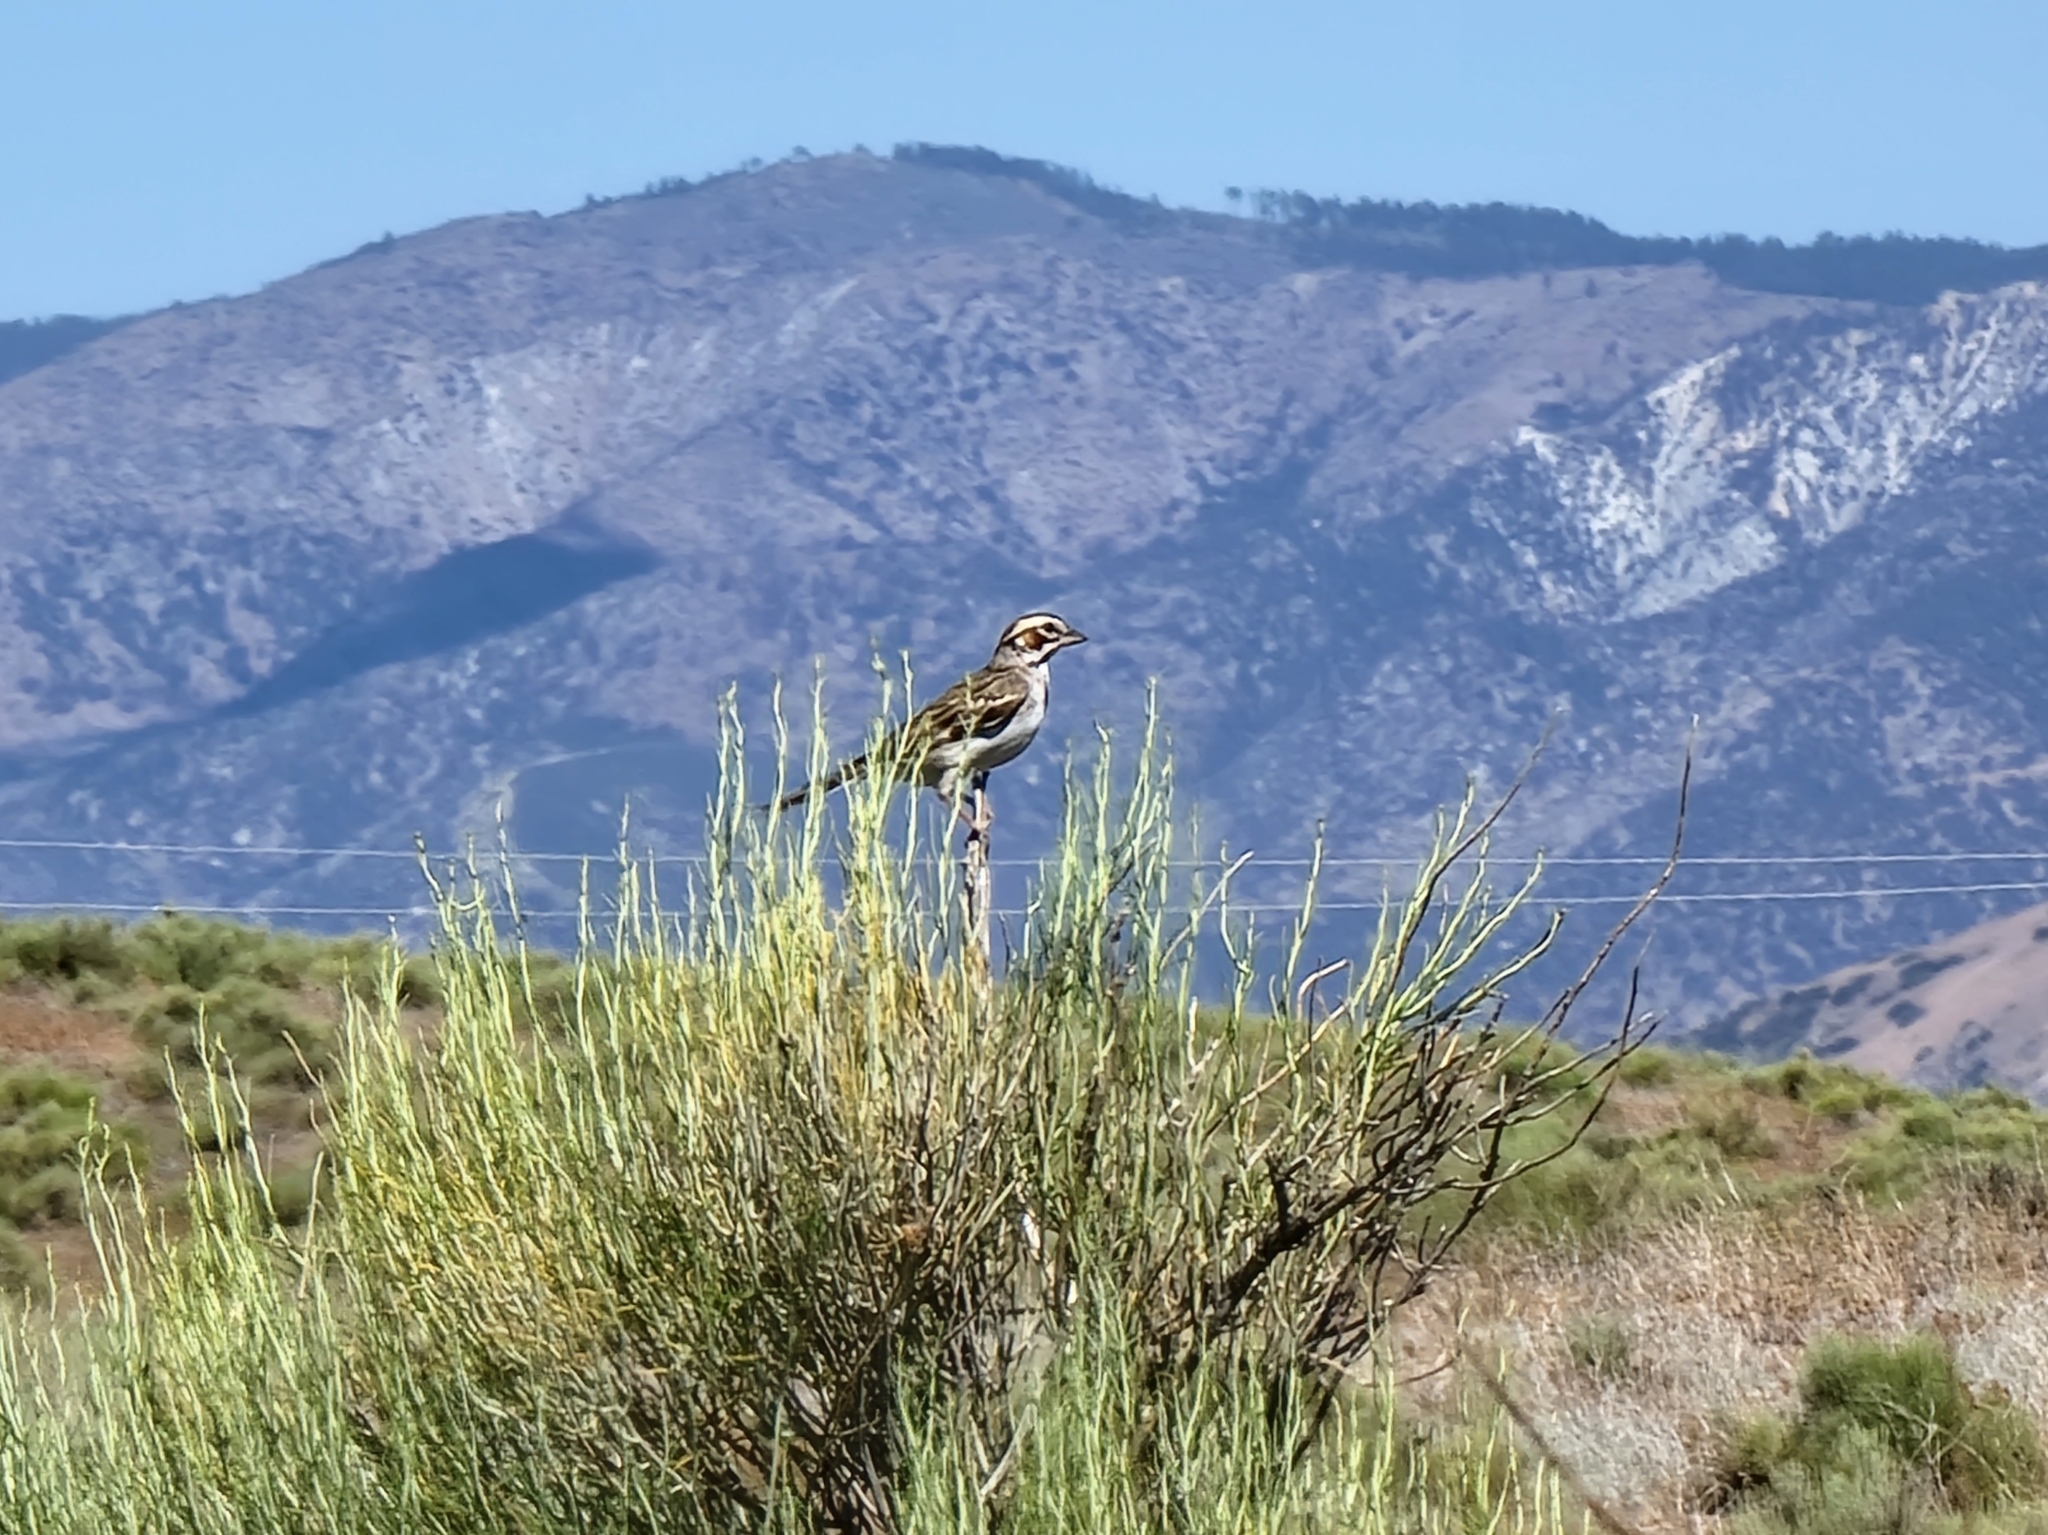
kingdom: Animalia
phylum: Chordata
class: Aves
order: Passeriformes
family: Passerellidae
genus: Chondestes
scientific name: Chondestes grammacus
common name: Lark sparrow
